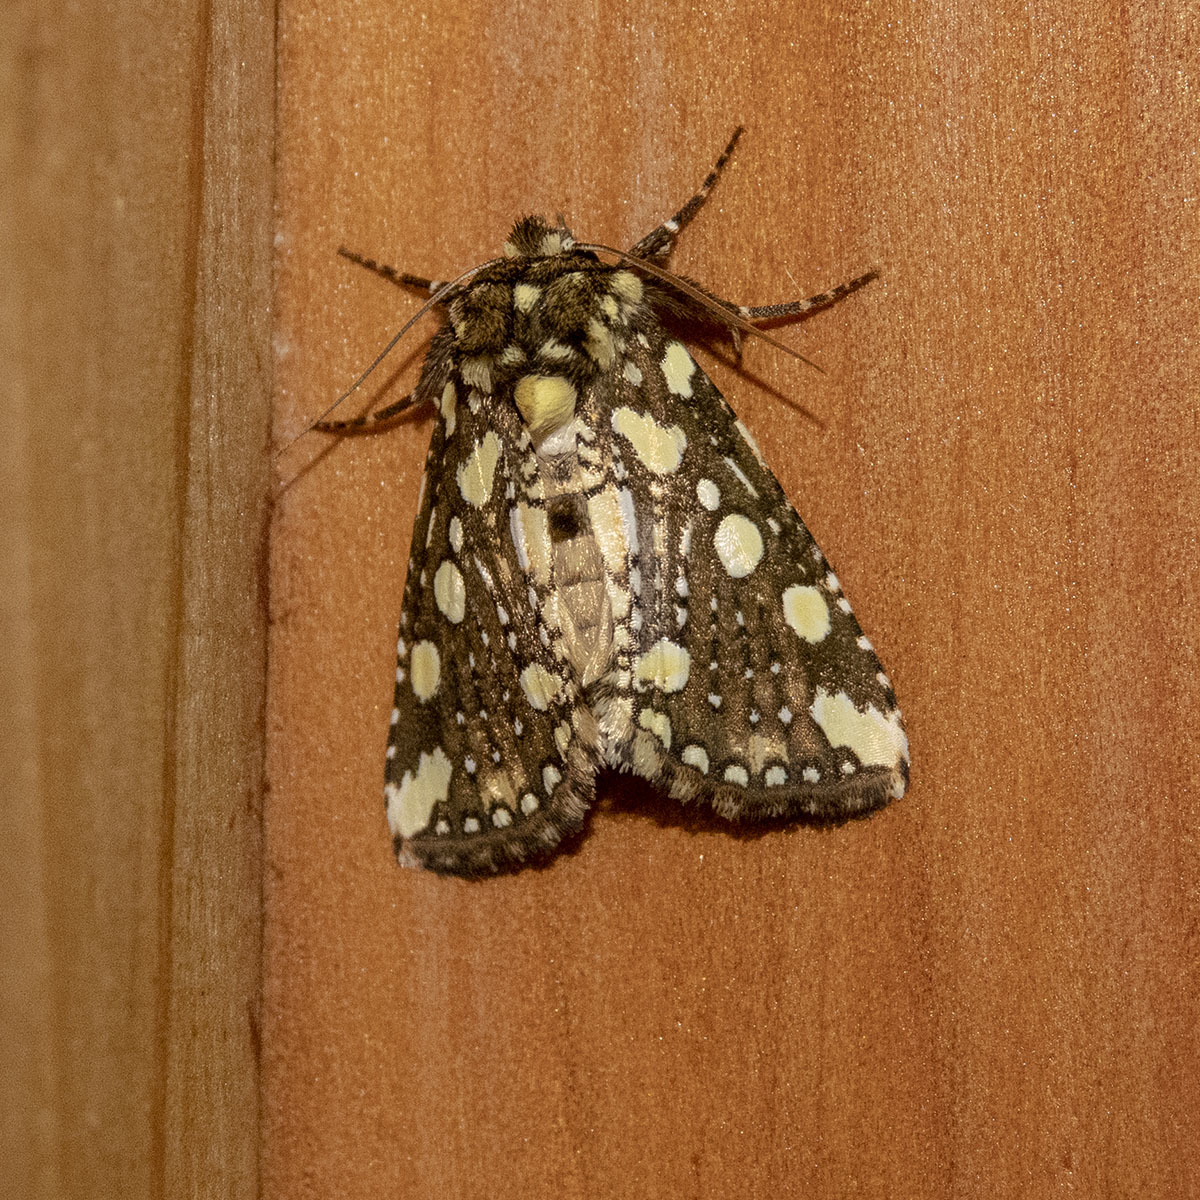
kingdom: Animalia
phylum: Arthropoda
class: Insecta
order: Lepidoptera
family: Drepanidae
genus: Gaurena
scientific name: Gaurena florescens
